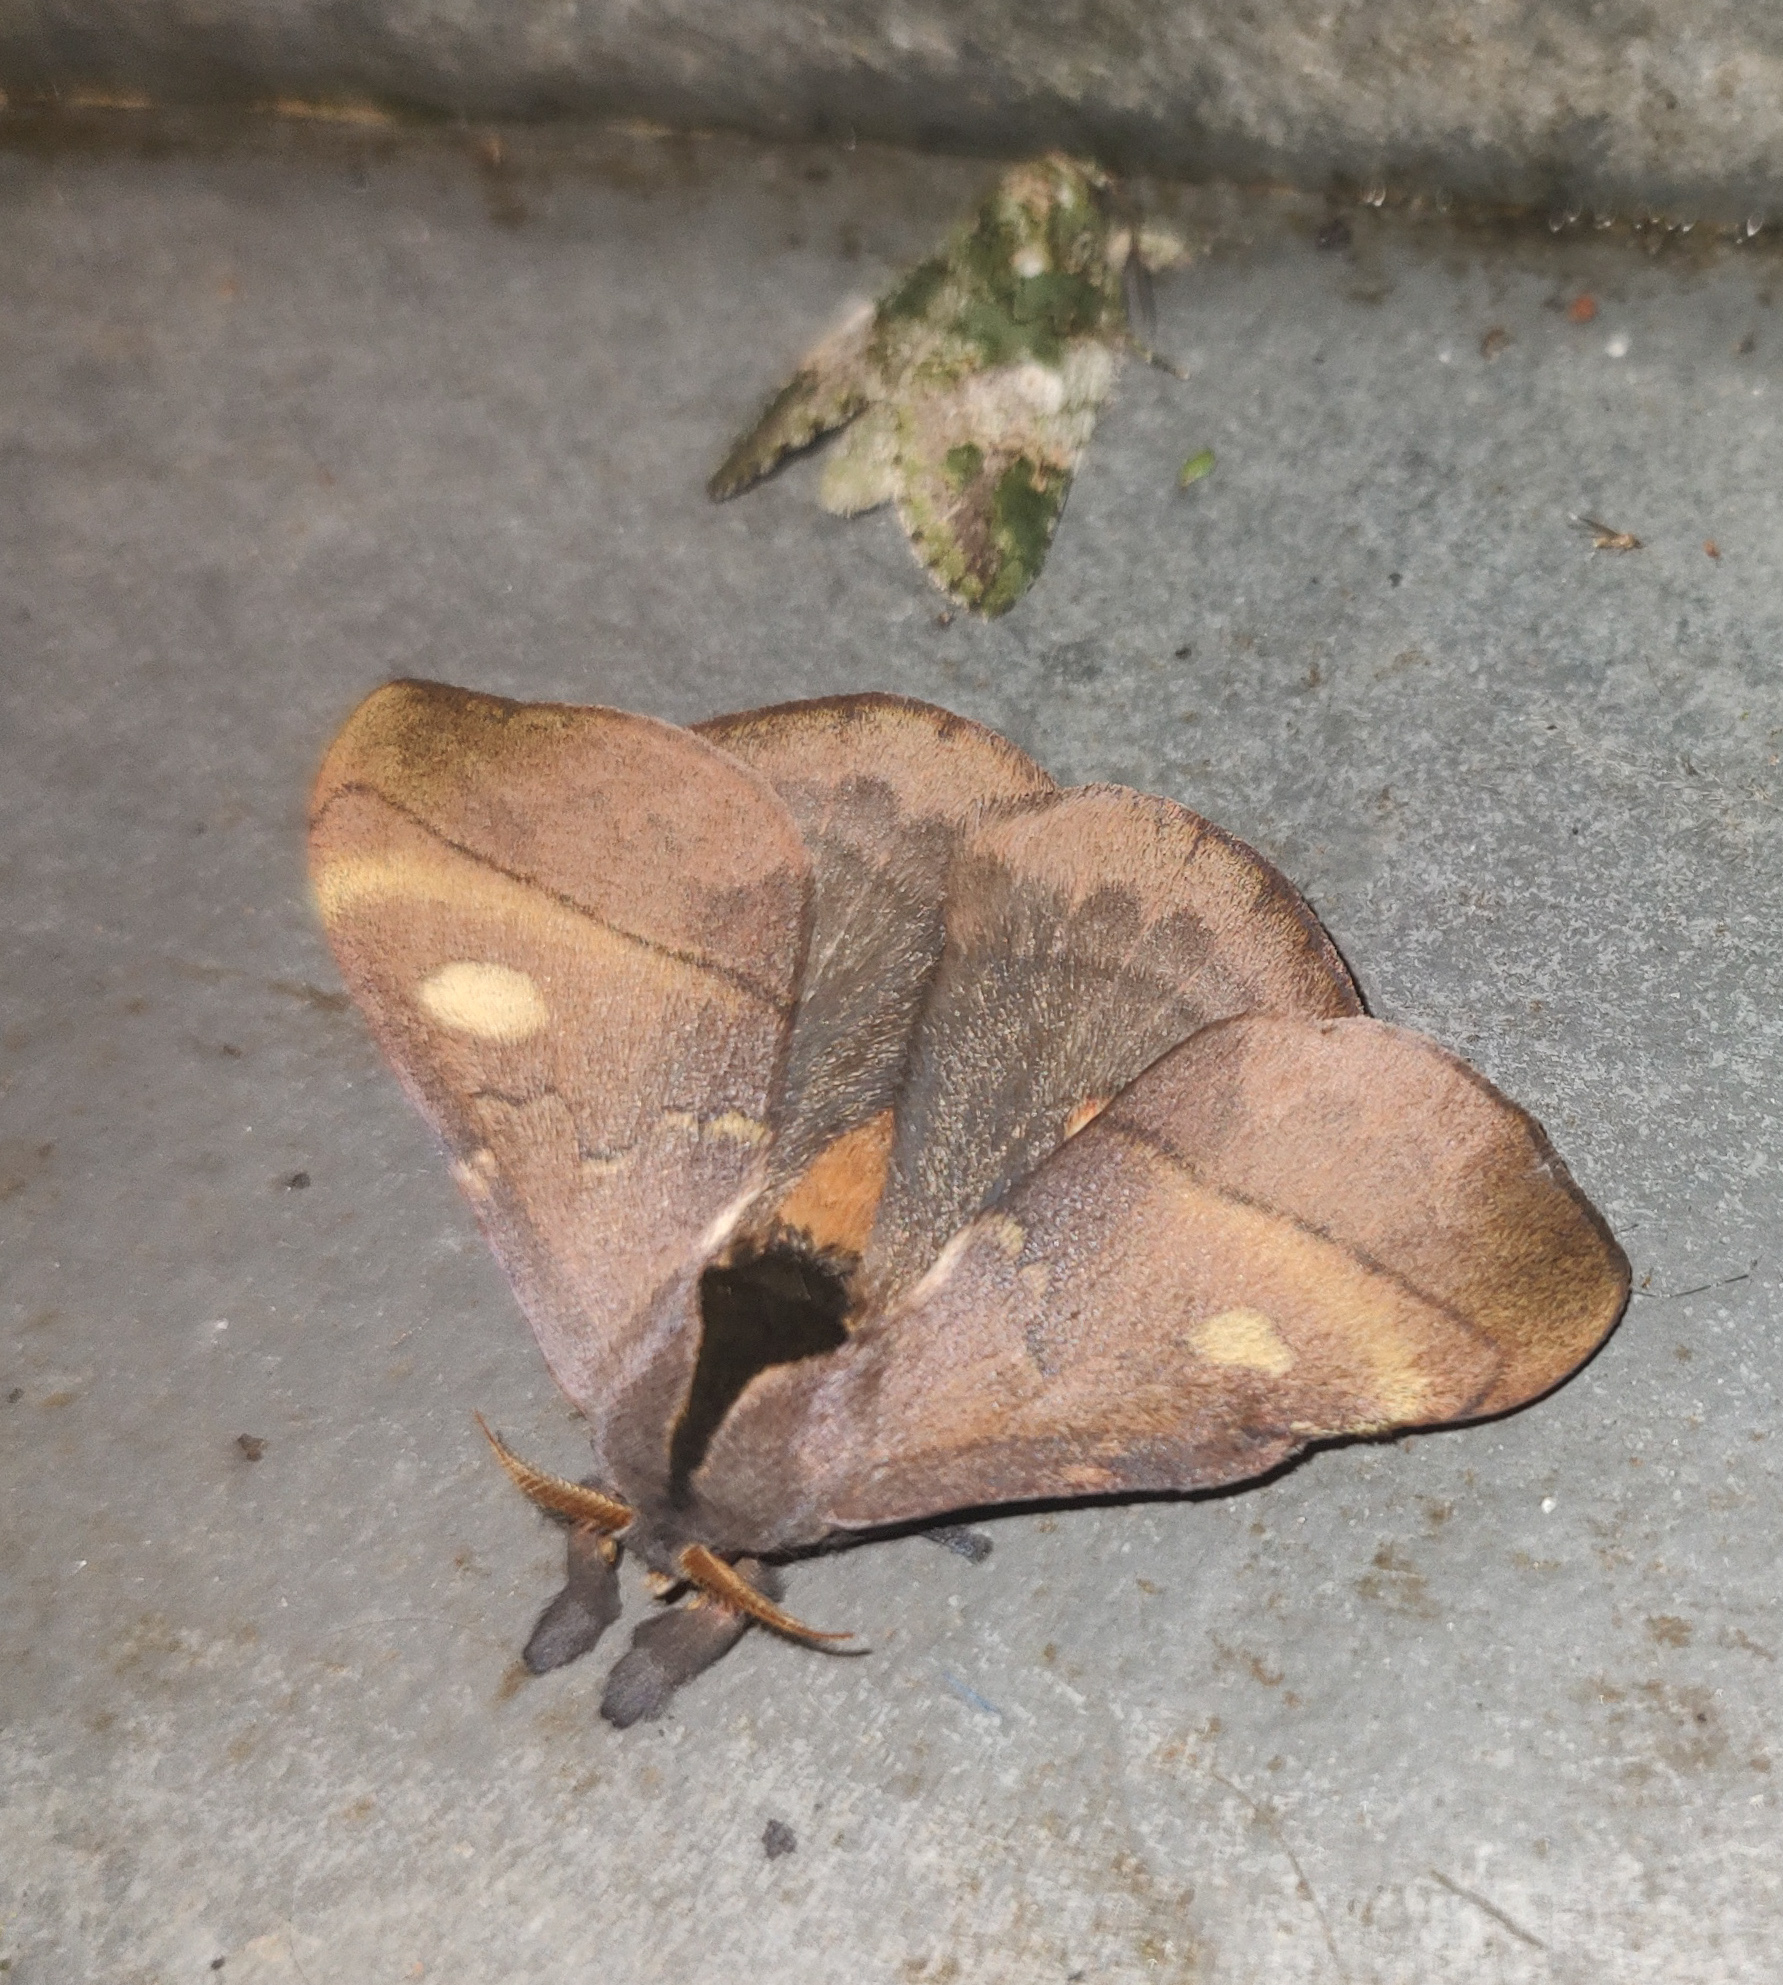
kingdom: Animalia
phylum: Arthropoda
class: Insecta
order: Lepidoptera
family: Saturniidae
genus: Hylesia
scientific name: Hylesia
